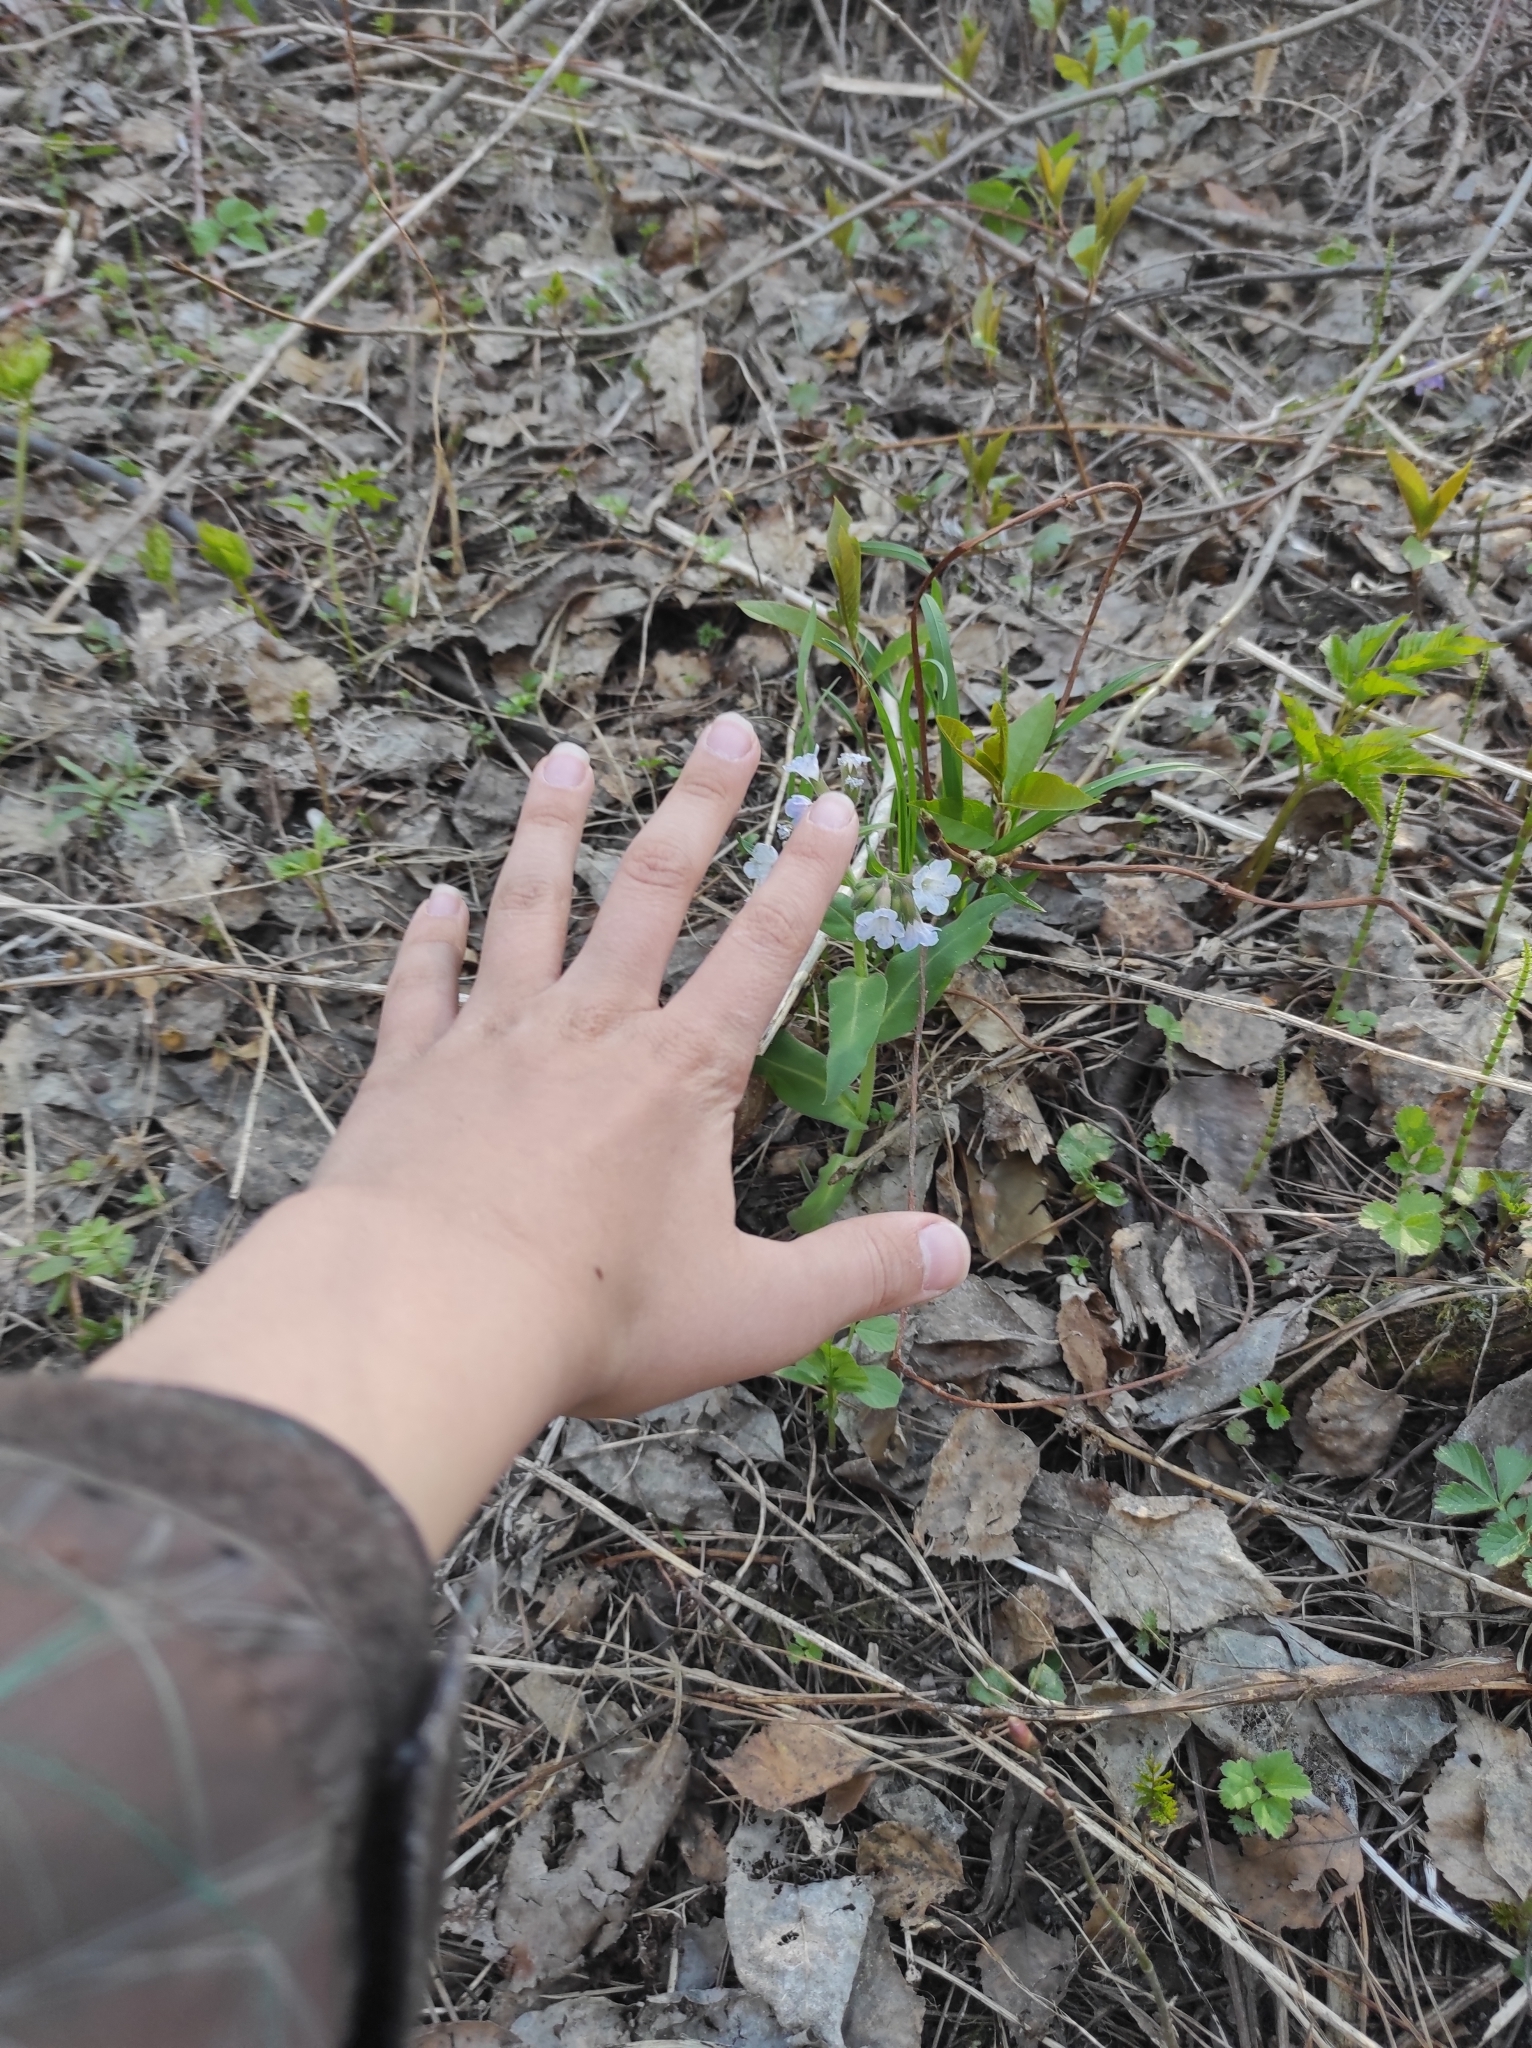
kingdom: Plantae
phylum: Tracheophyta
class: Magnoliopsida
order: Boraginales
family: Boraginaceae
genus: Pulmonaria
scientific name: Pulmonaria mollis
